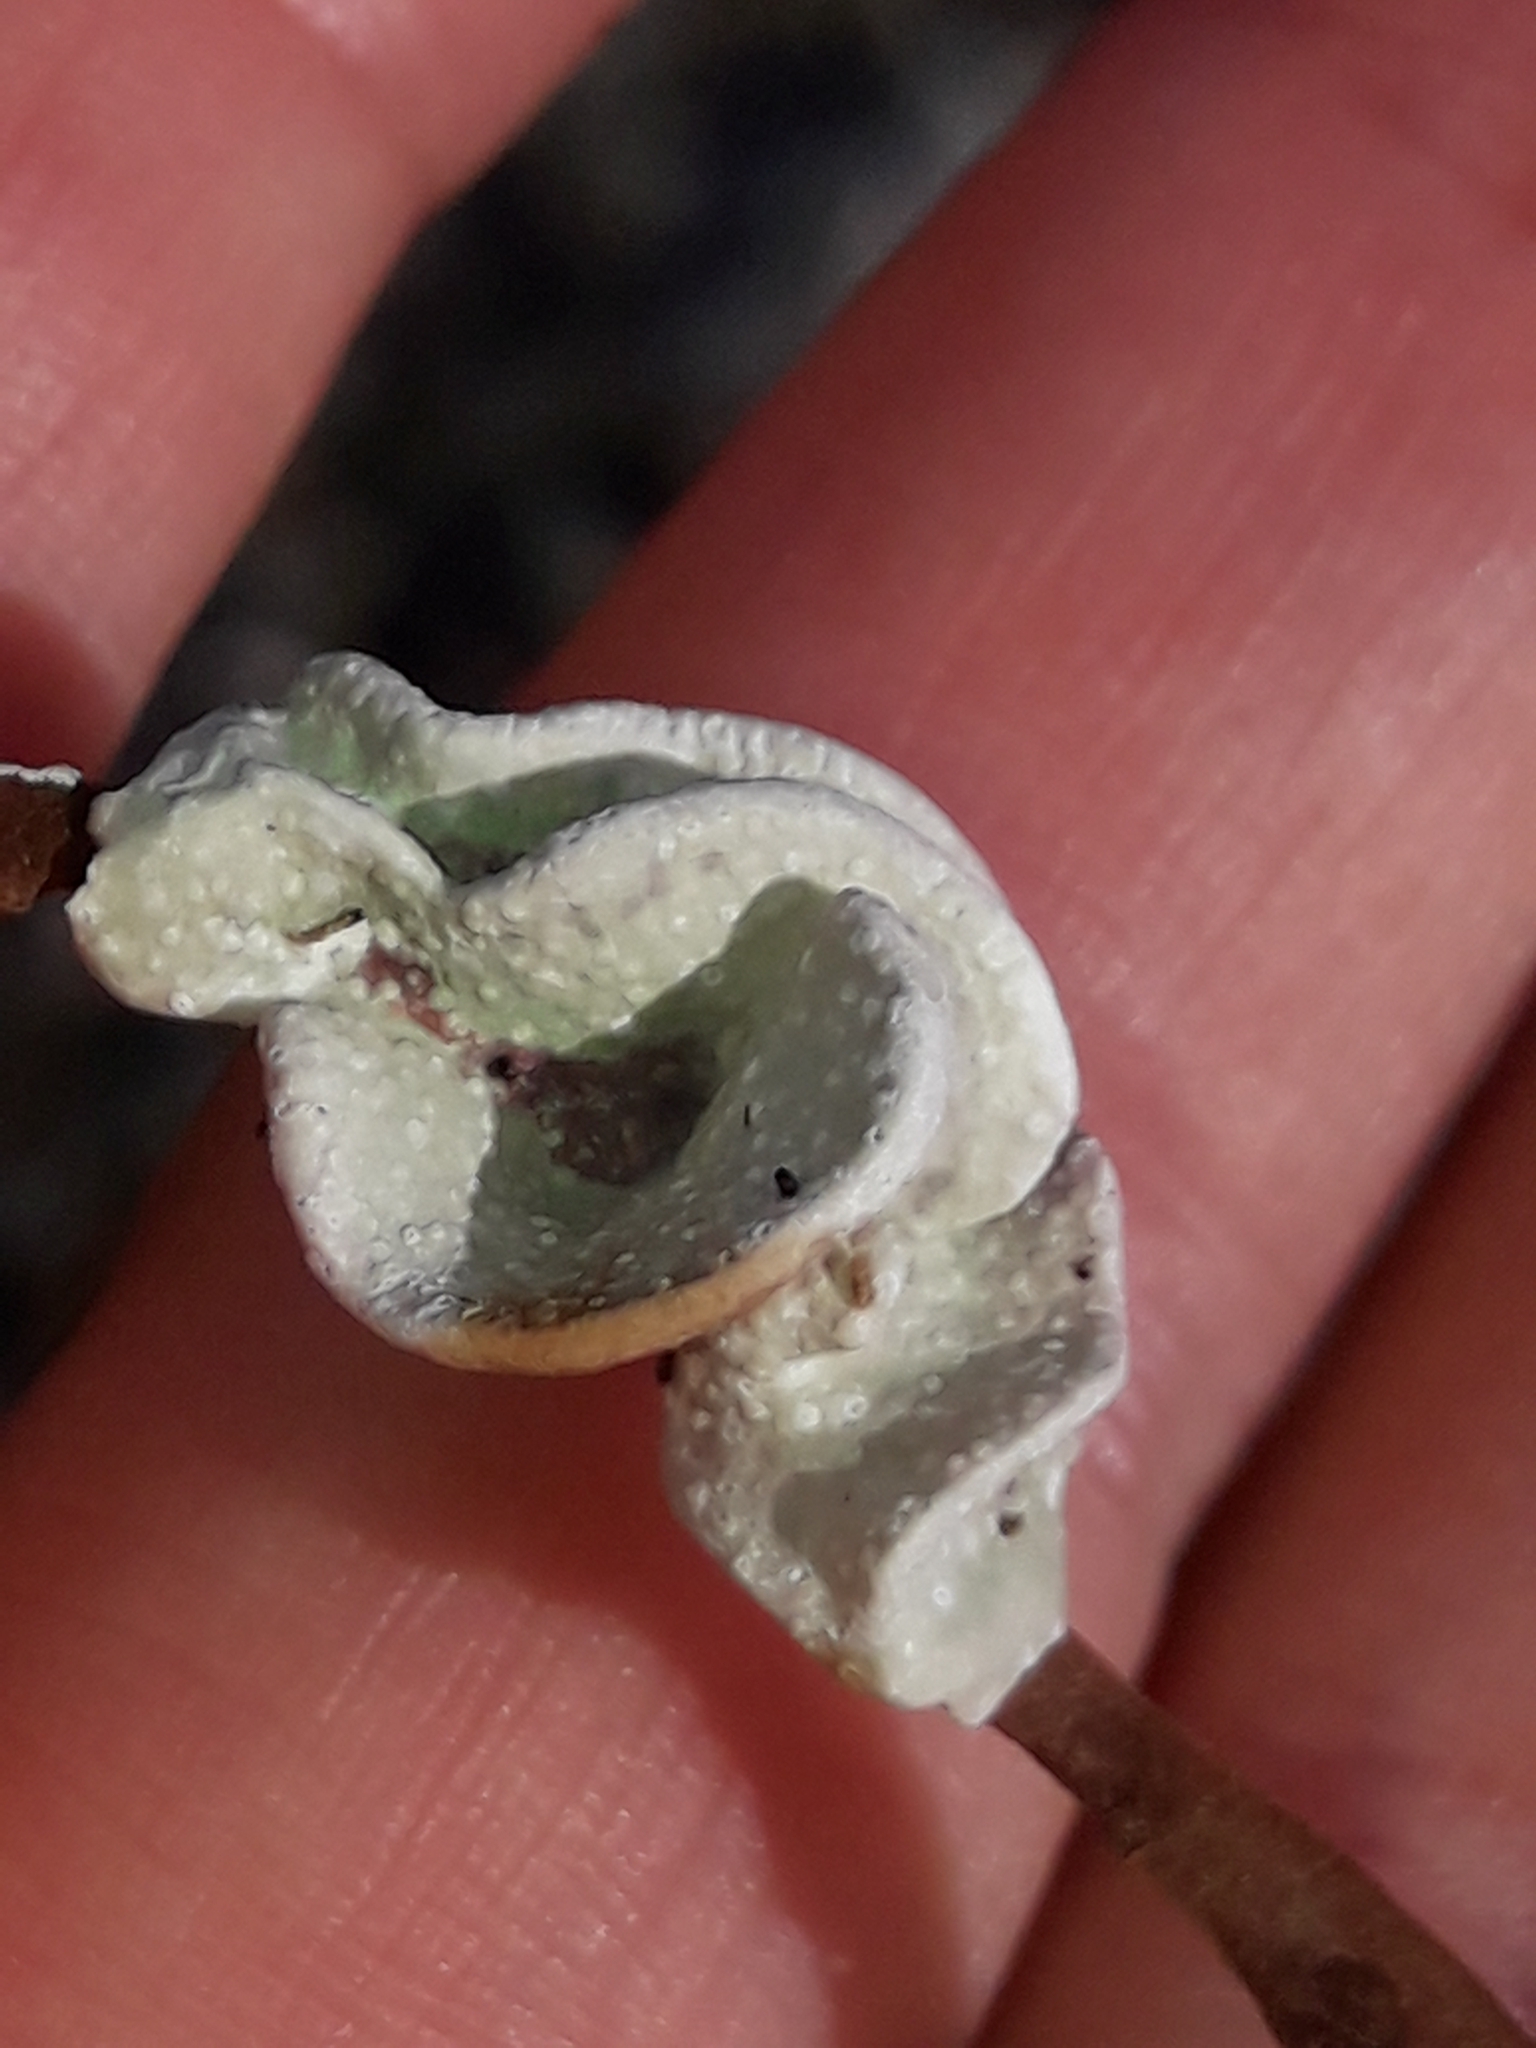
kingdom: Plantae
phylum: Rhodophyta
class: Florideophyceae
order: Corallinales
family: Lithophyllaceae
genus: Lithophyllum
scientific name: Lithophyllum carpophylli
